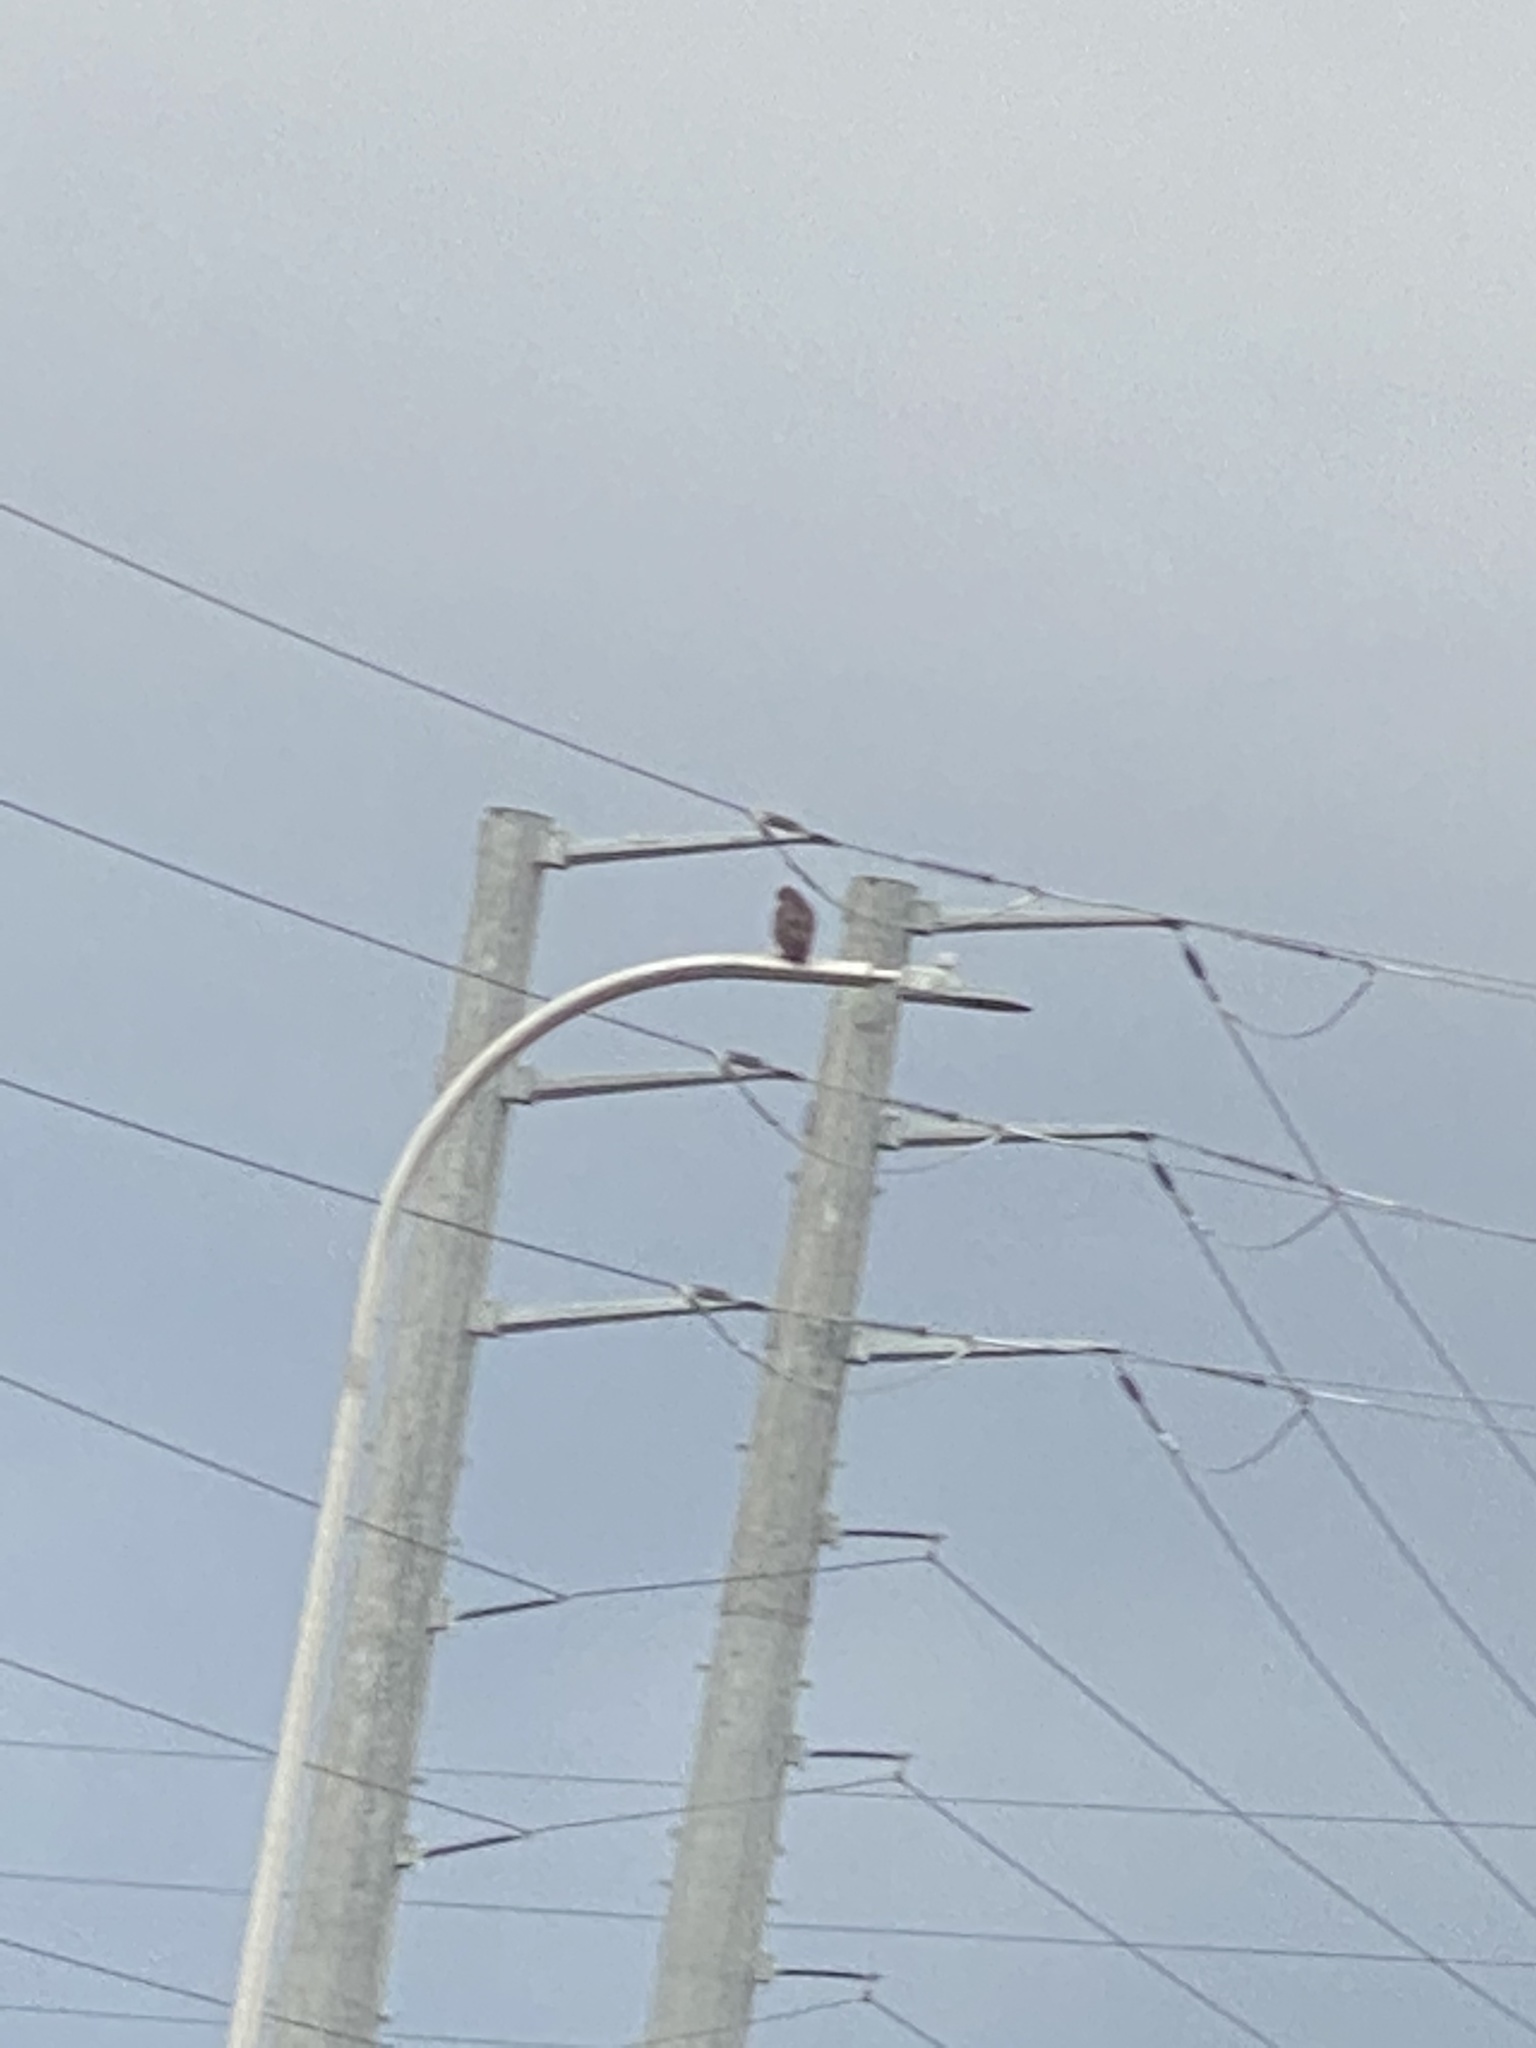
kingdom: Animalia
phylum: Chordata
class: Aves
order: Accipitriformes
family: Accipitridae
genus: Buteo
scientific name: Buteo jamaicensis
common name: Red-tailed hawk
